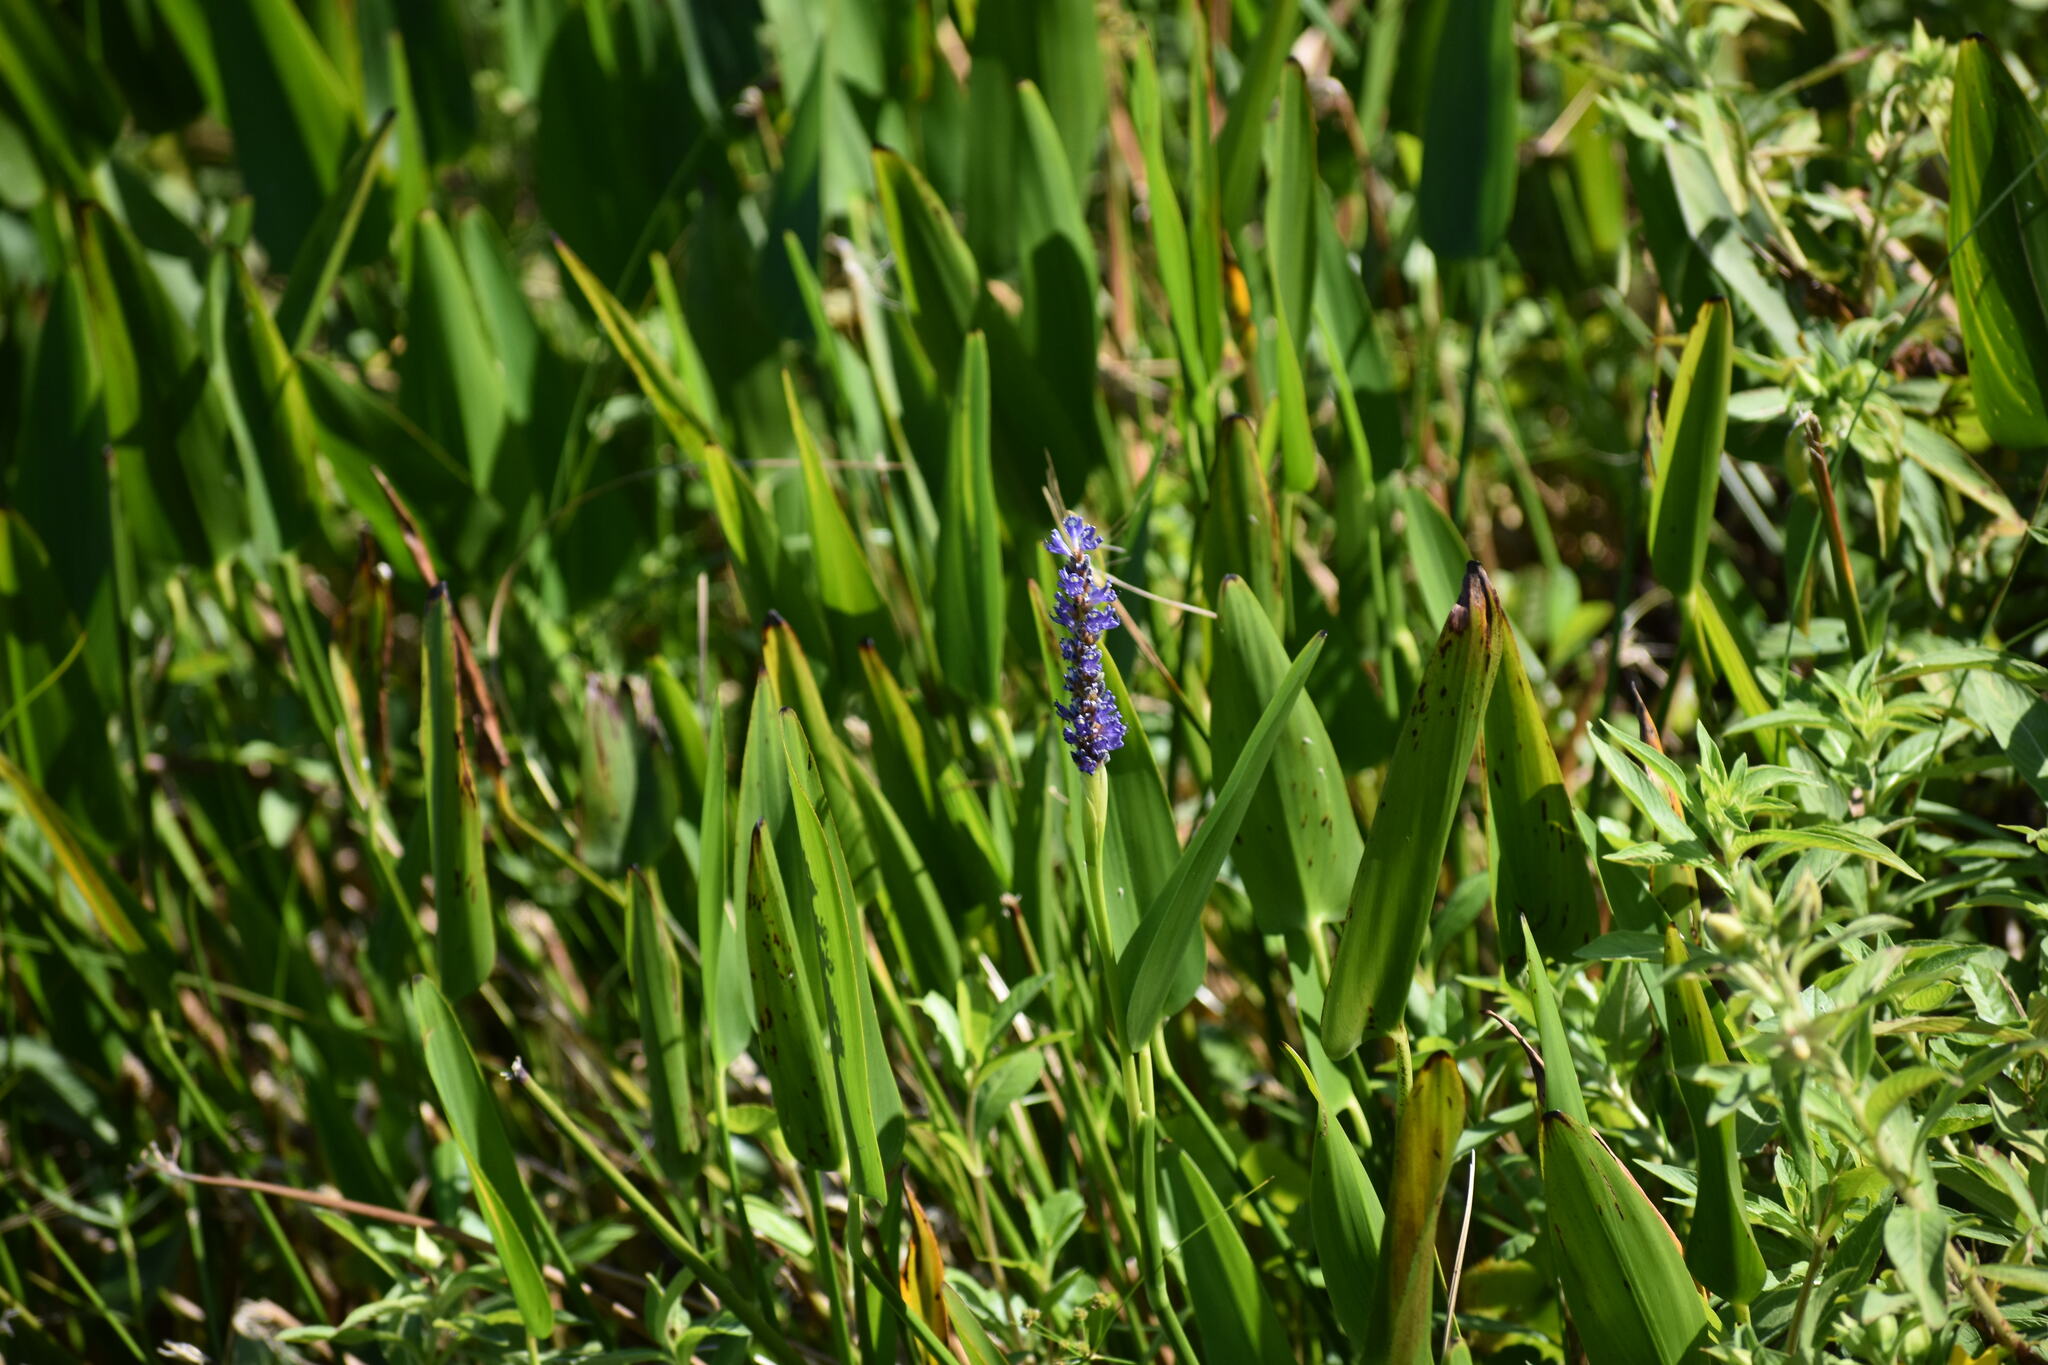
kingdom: Plantae
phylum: Tracheophyta
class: Liliopsida
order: Commelinales
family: Pontederiaceae
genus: Pontederia
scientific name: Pontederia cordata
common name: Pickerelweed
